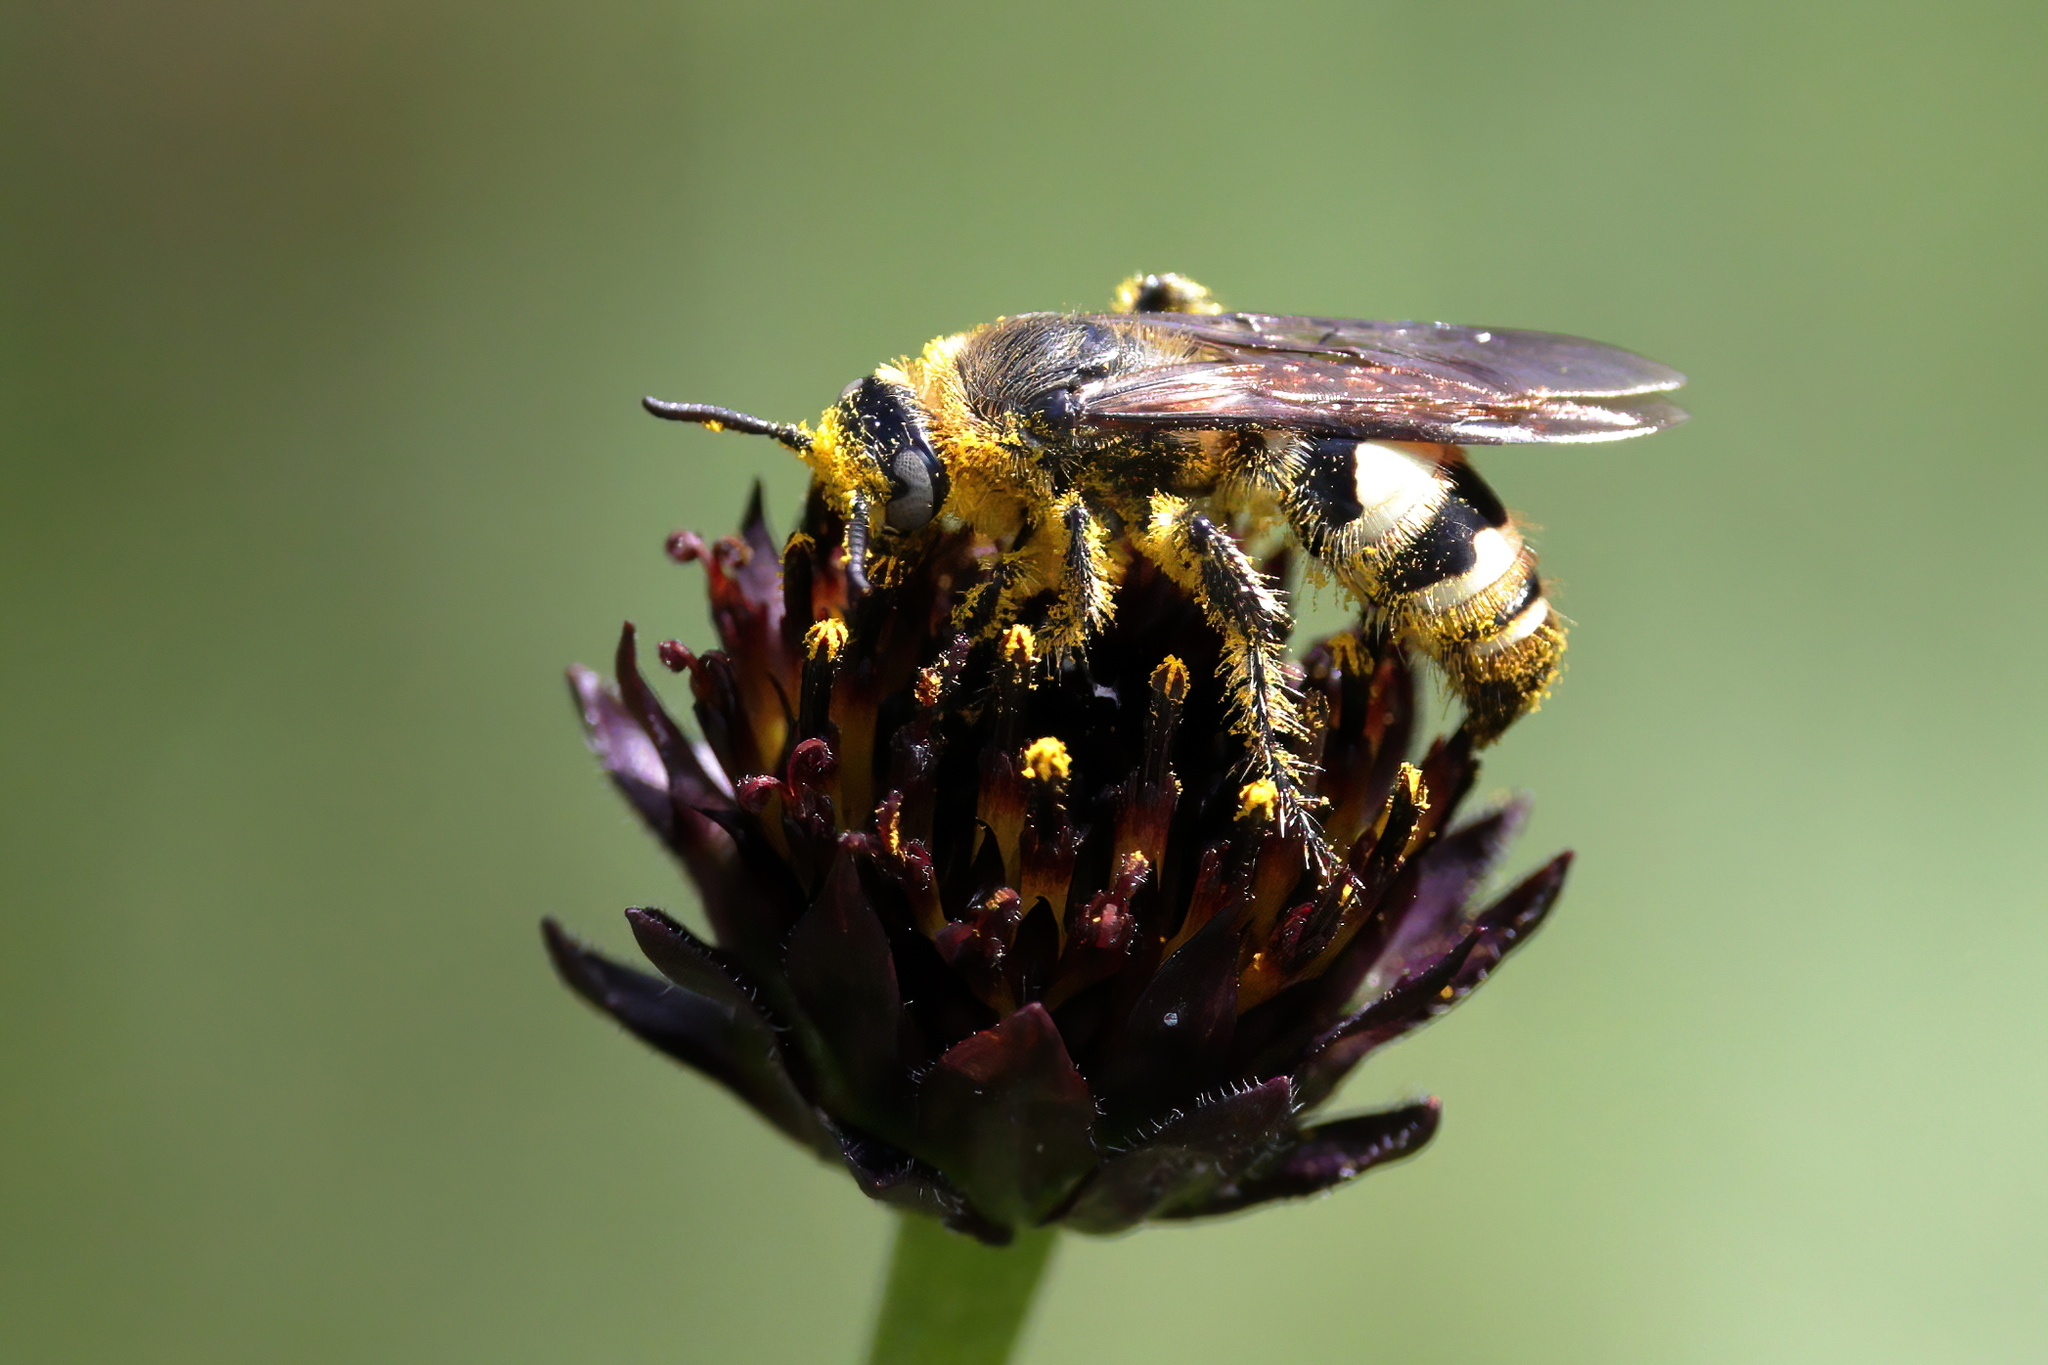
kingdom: Animalia
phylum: Arthropoda
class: Insecta
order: Hymenoptera
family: Scoliidae
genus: Dielis
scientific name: Dielis
